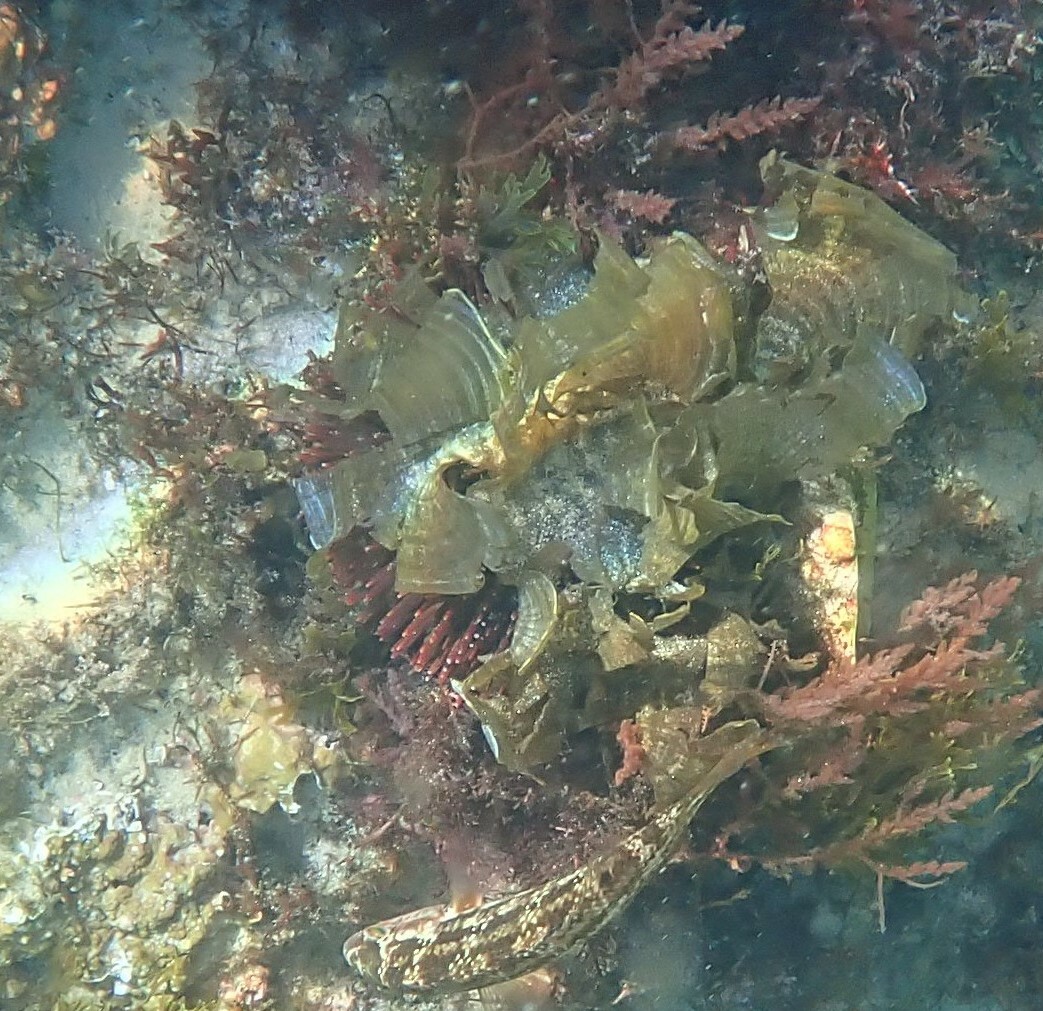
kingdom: Animalia
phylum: Echinodermata
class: Echinoidea
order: Camarodonta
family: Toxopneustidae
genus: Sphaerechinus
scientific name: Sphaerechinus granularis
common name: Violet sea urchin
